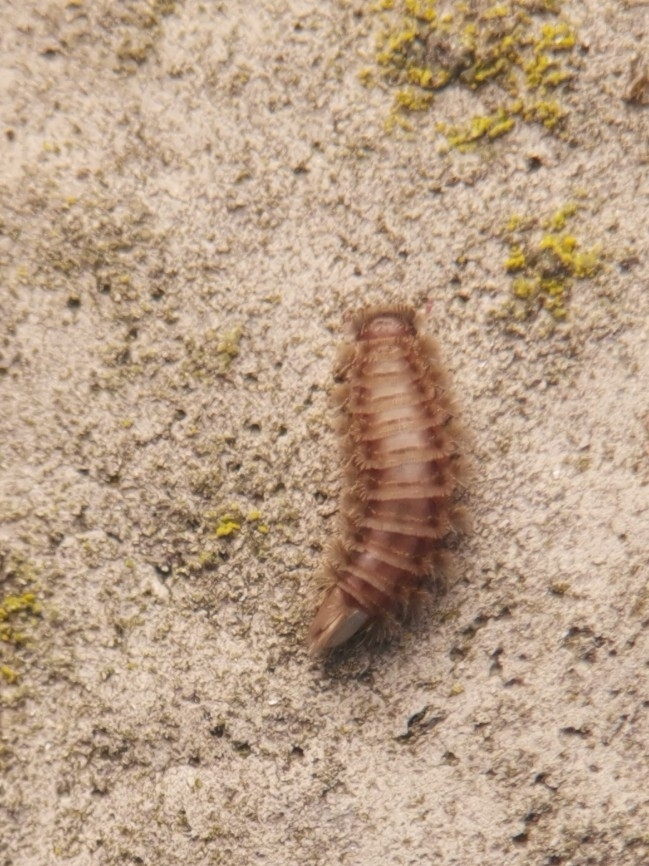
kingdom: Animalia
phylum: Arthropoda
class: Diplopoda
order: Polyxenida
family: Polyxenidae
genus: Polyxenus
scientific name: Polyxenus lagurus
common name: Bristly millipede
